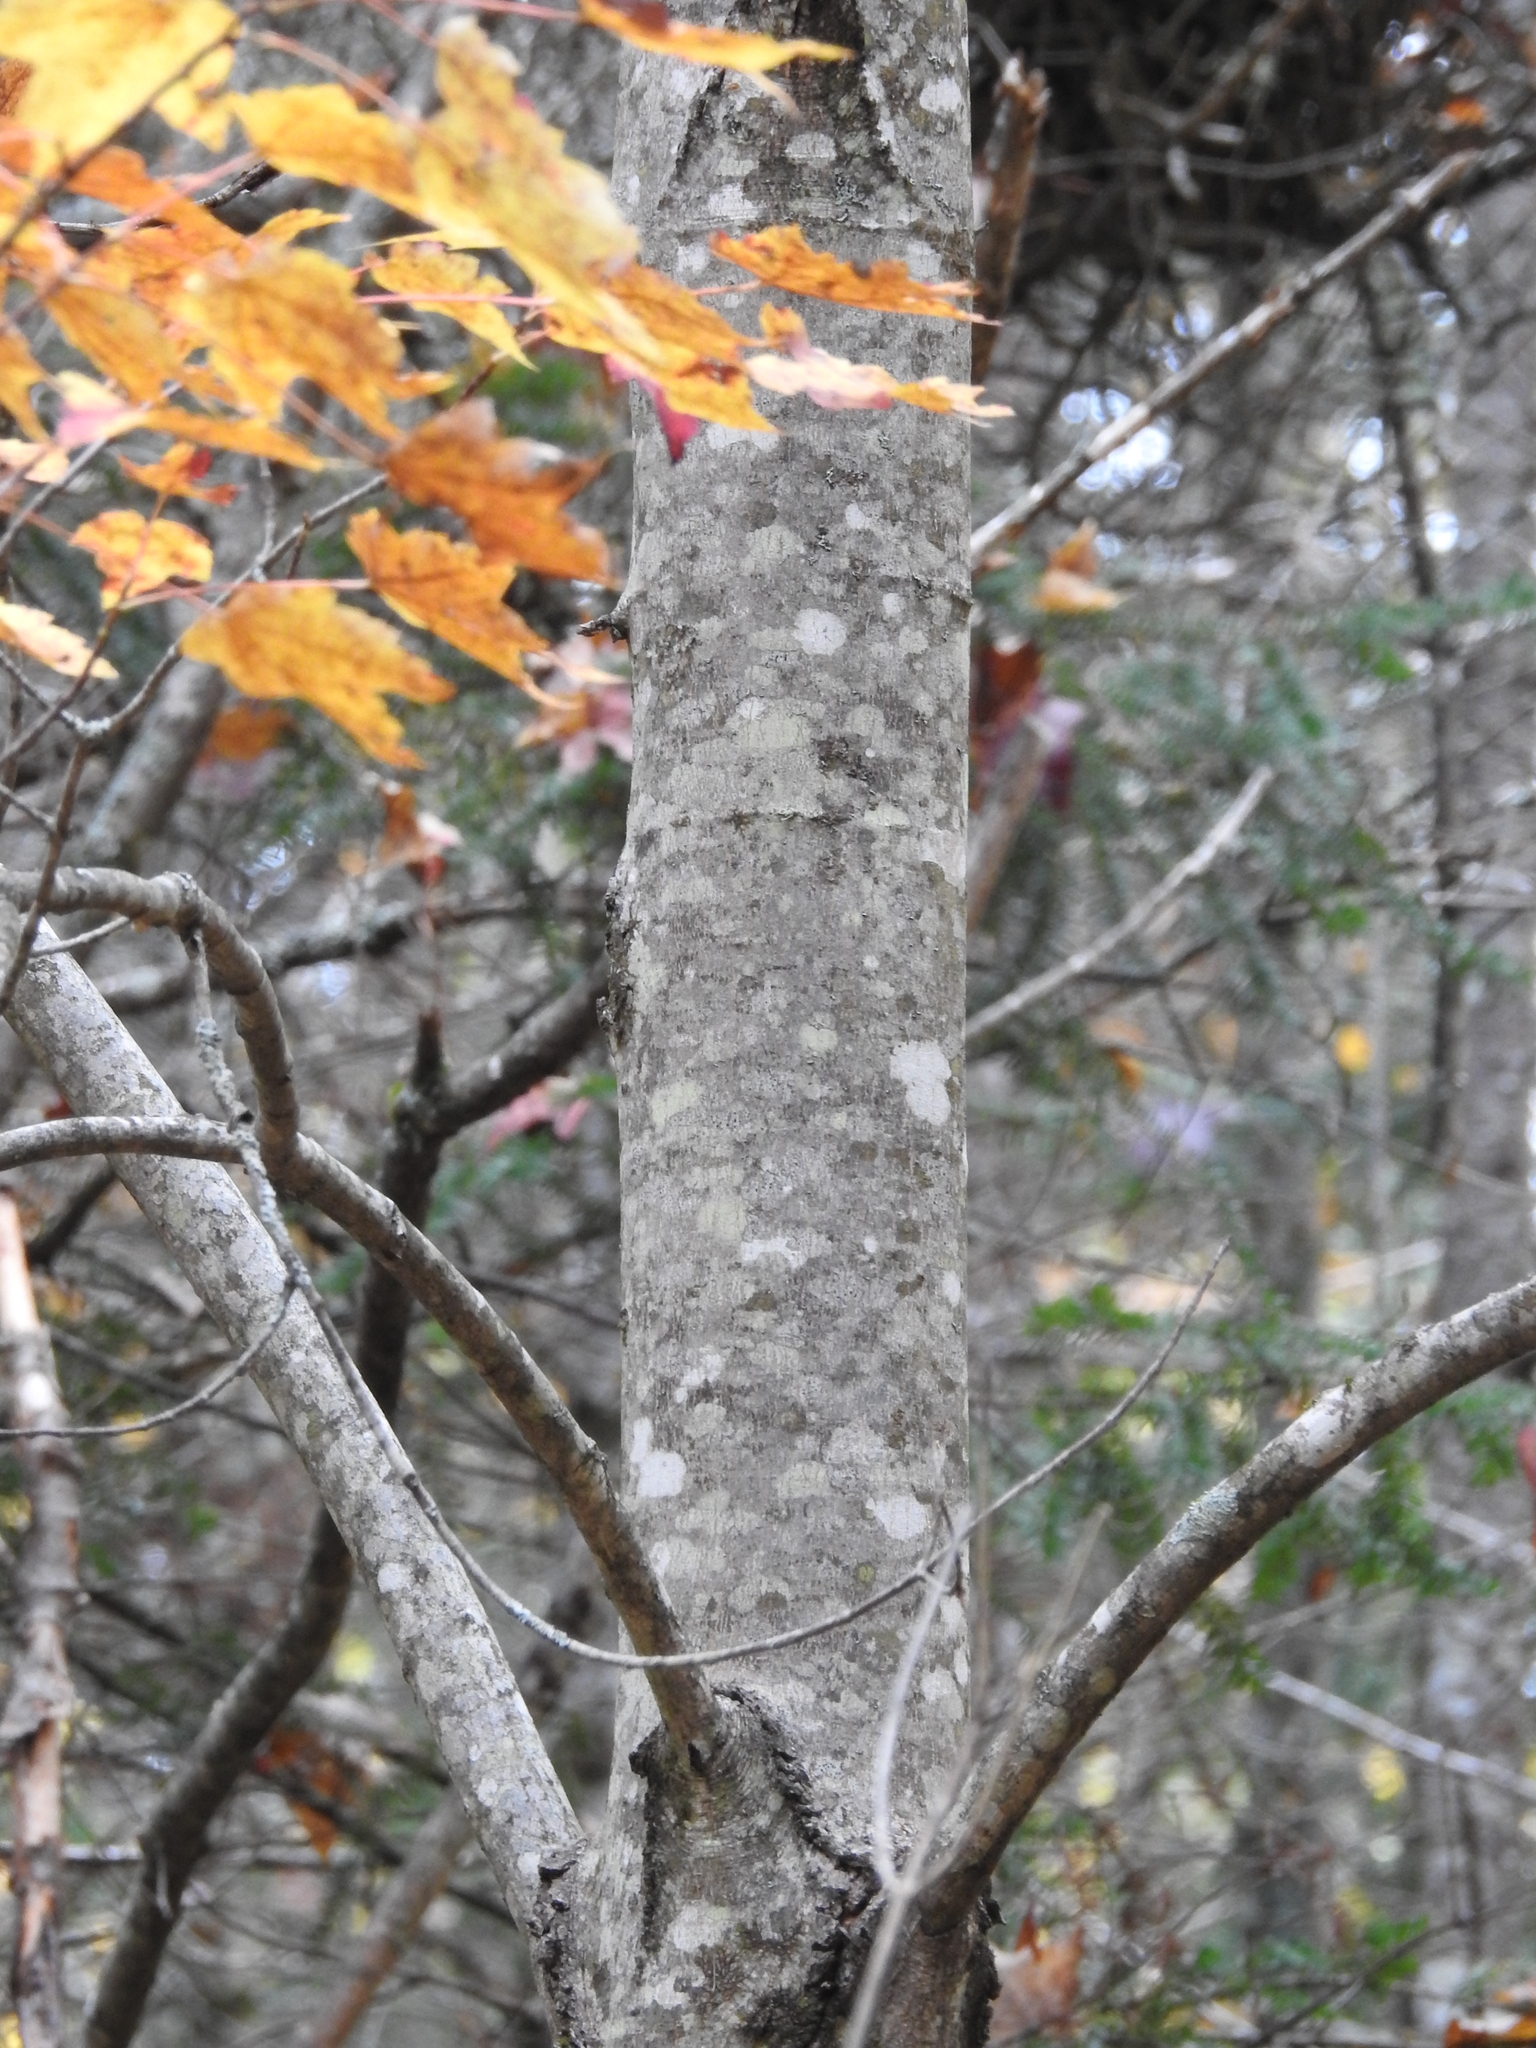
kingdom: Plantae
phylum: Tracheophyta
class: Magnoliopsida
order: Sapindales
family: Sapindaceae
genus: Acer
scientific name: Acer rubrum
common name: Red maple
